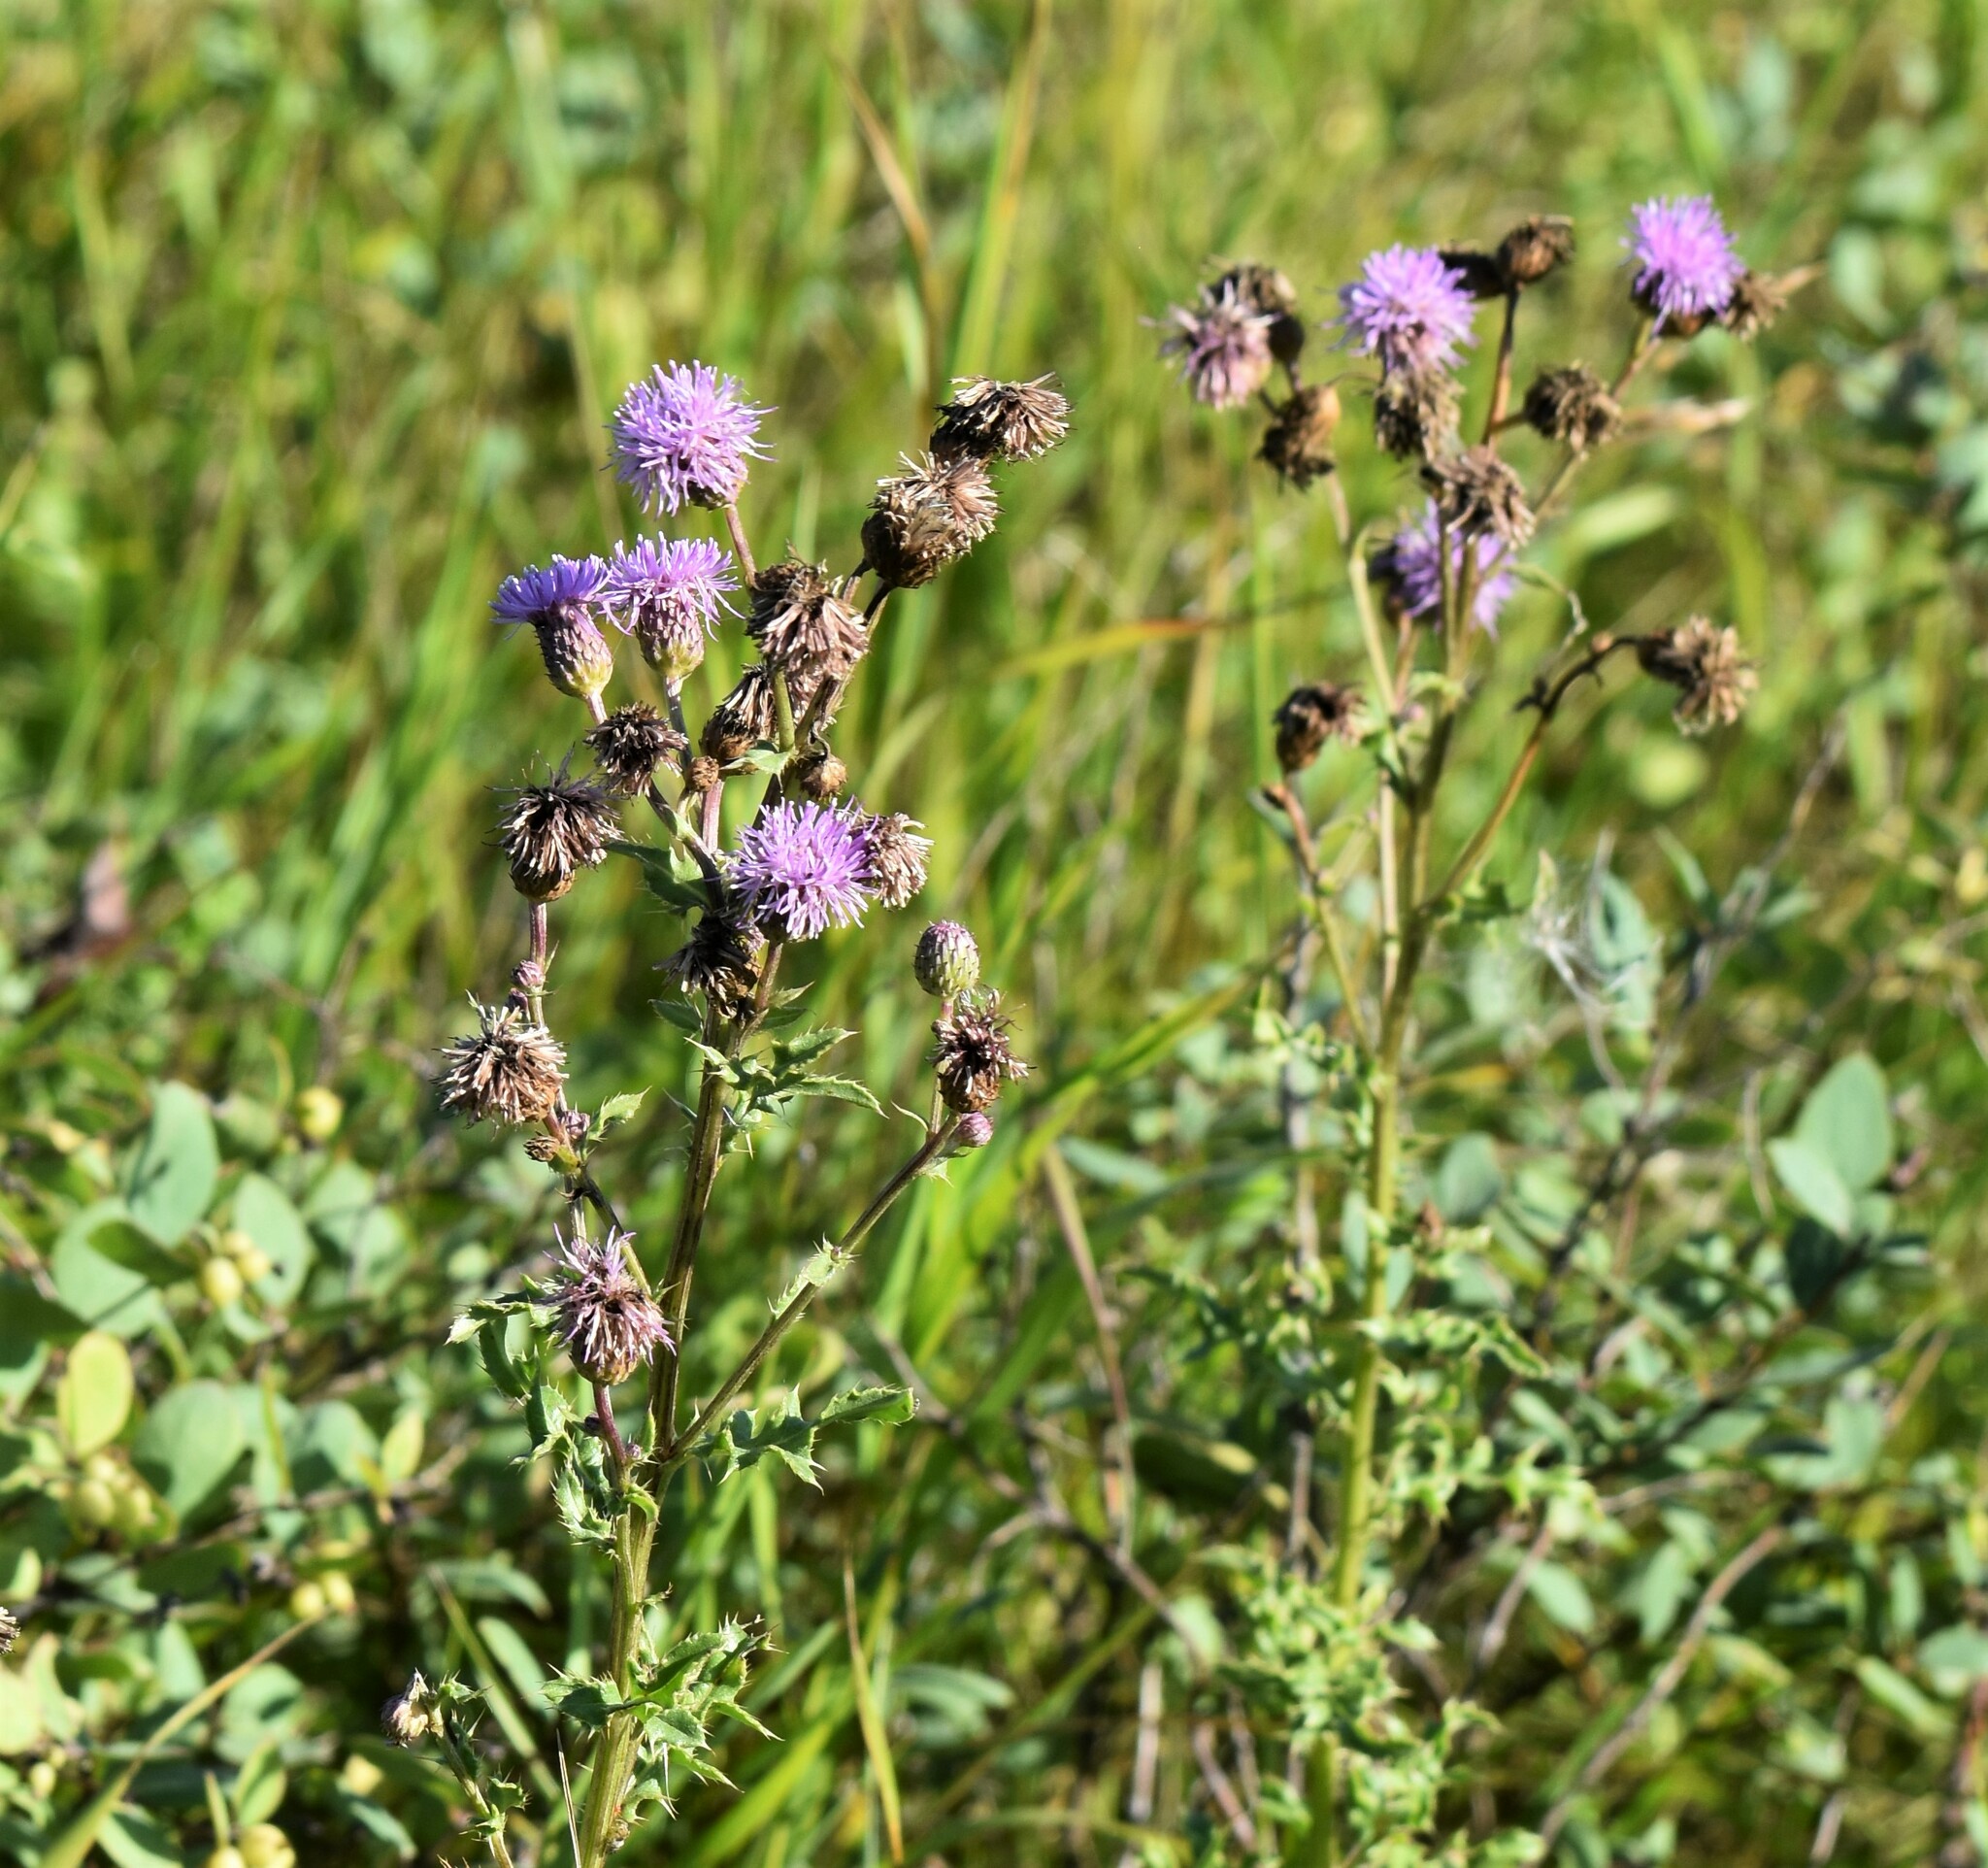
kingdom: Plantae
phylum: Tracheophyta
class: Magnoliopsida
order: Asterales
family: Asteraceae
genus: Cirsium
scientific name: Cirsium arvense
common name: Creeping thistle
